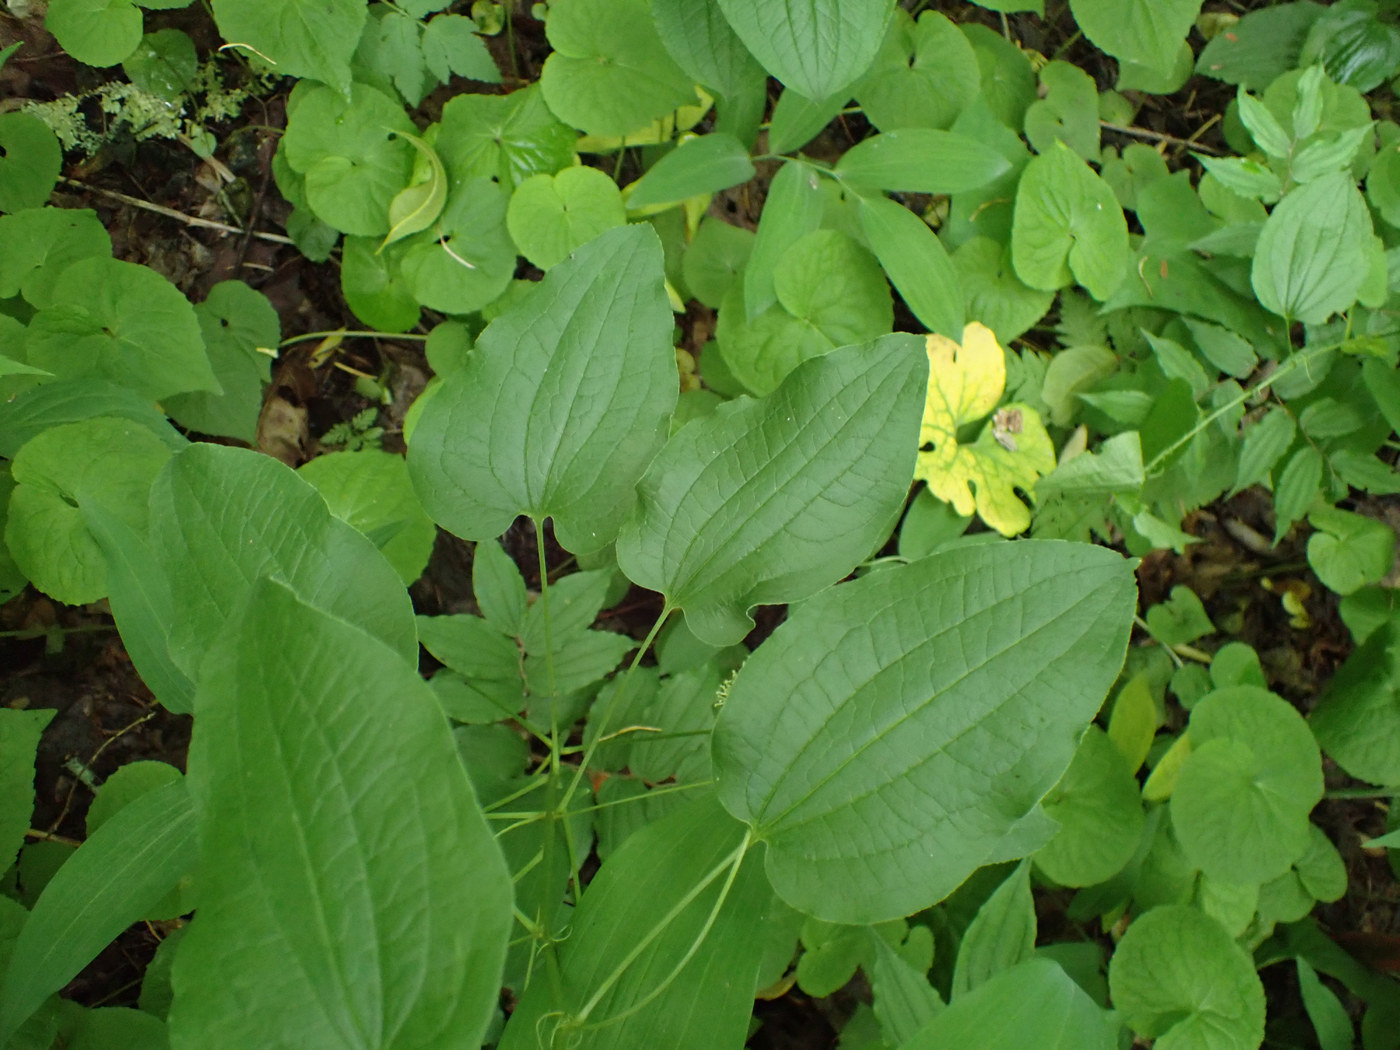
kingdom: Plantae
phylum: Tracheophyta
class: Liliopsida
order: Liliales
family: Smilacaceae
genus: Smilax
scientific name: Smilax pulverulenta
